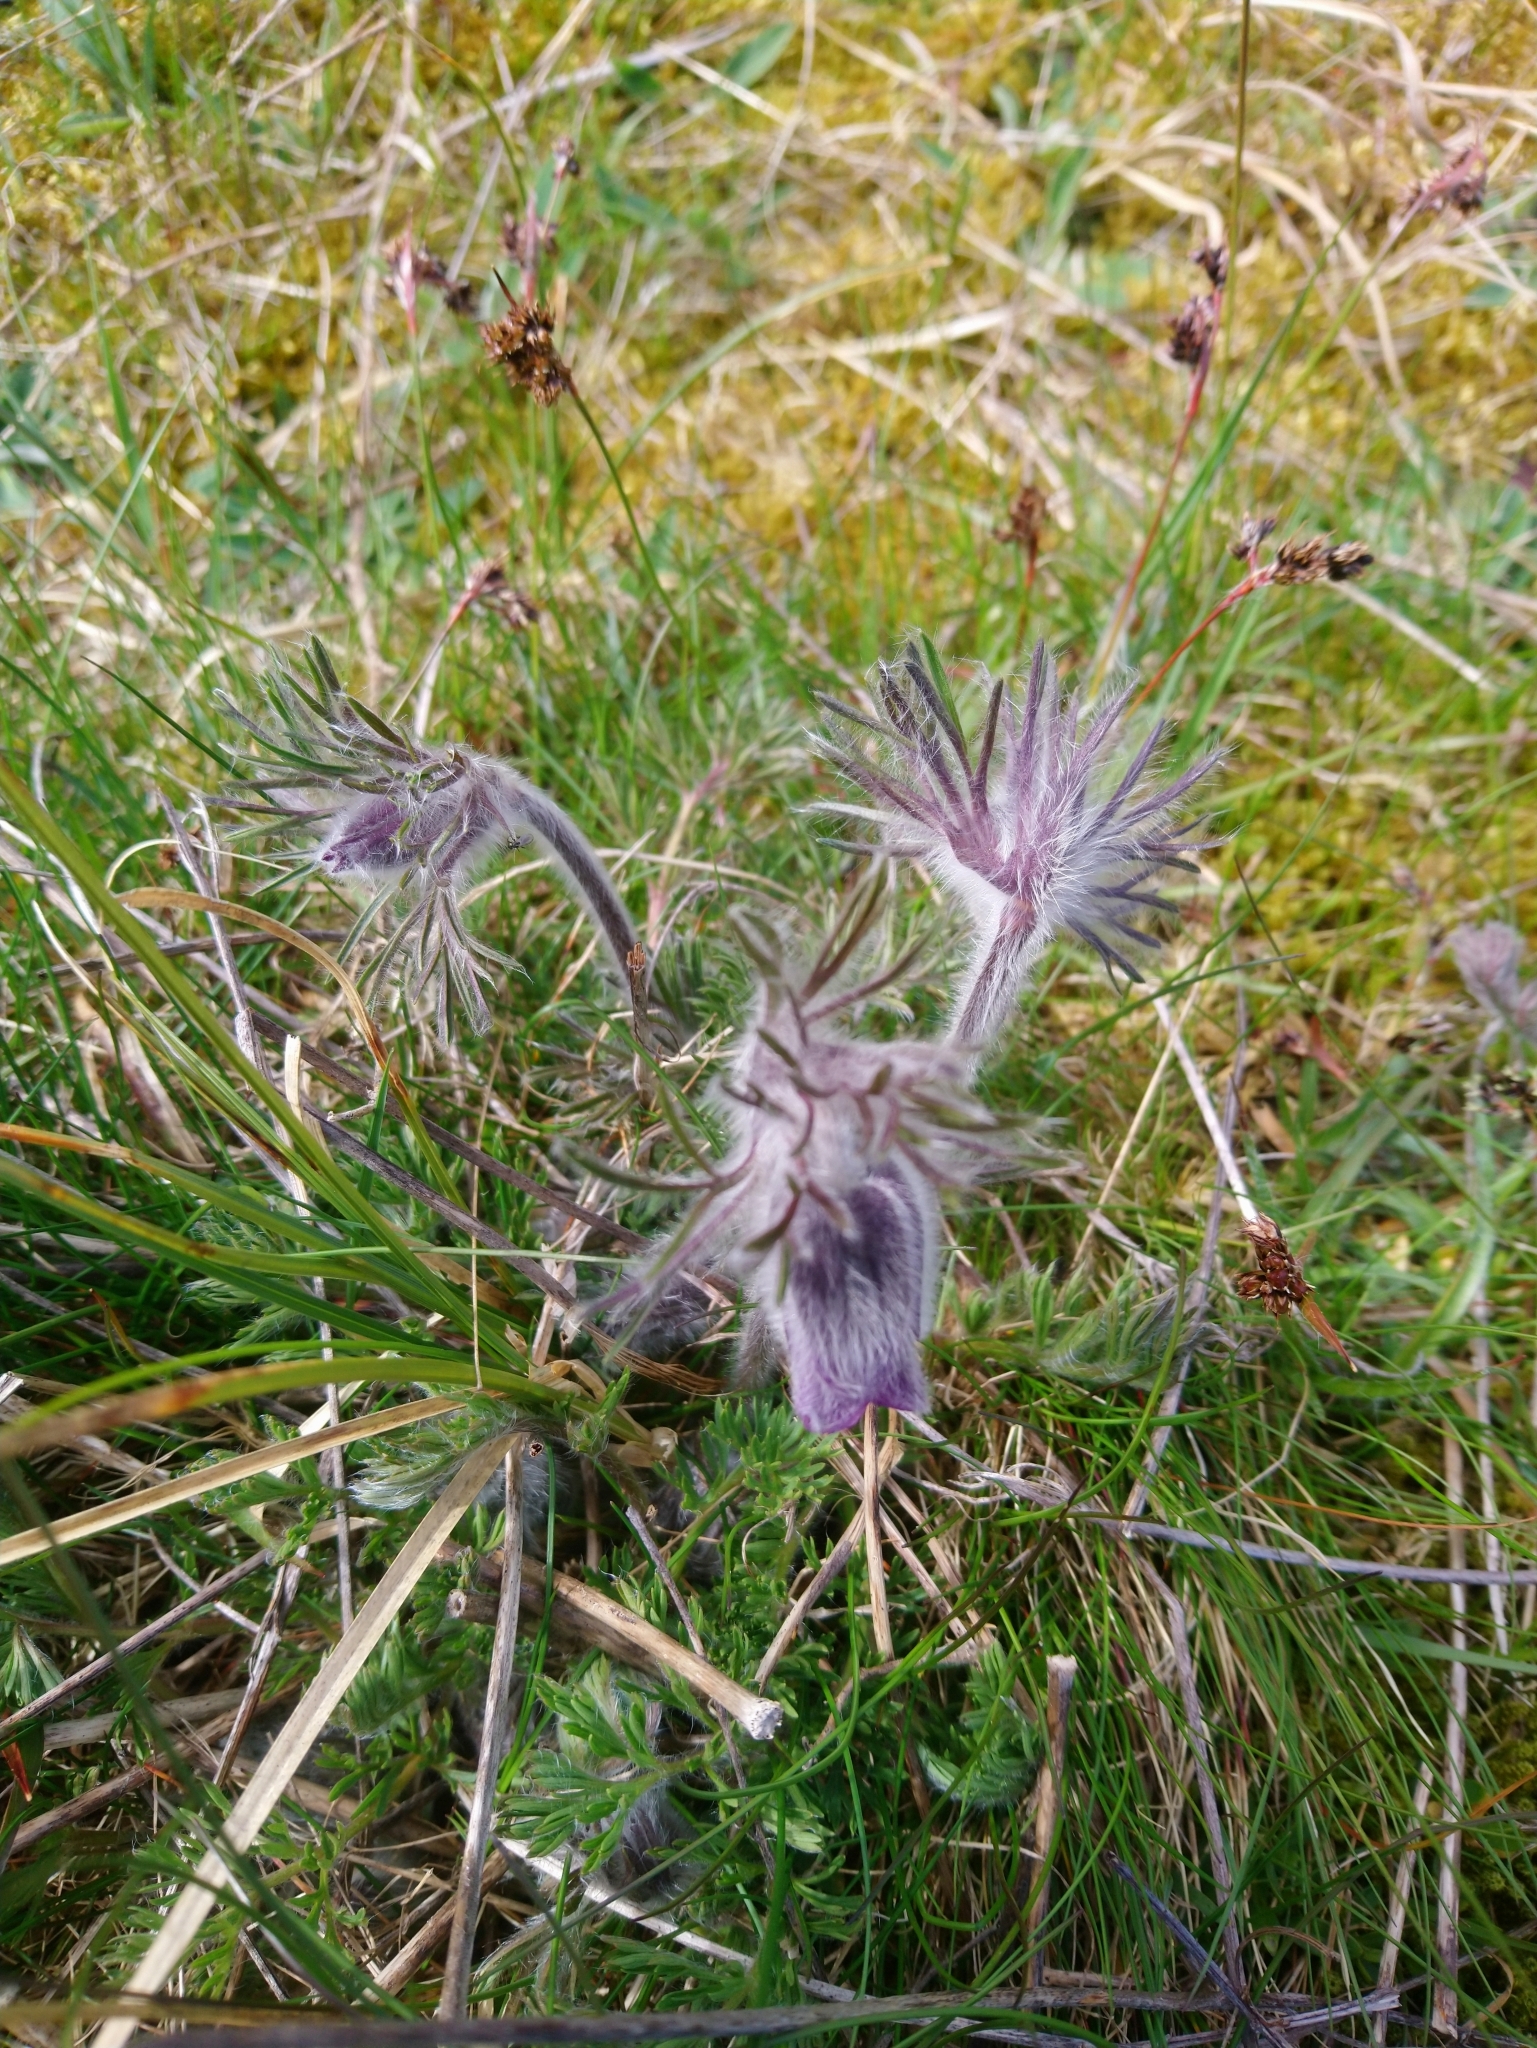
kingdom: Plantae
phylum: Tracheophyta
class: Magnoliopsida
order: Ranunculales
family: Ranunculaceae
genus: Pulsatilla
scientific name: Pulsatilla pratensis
